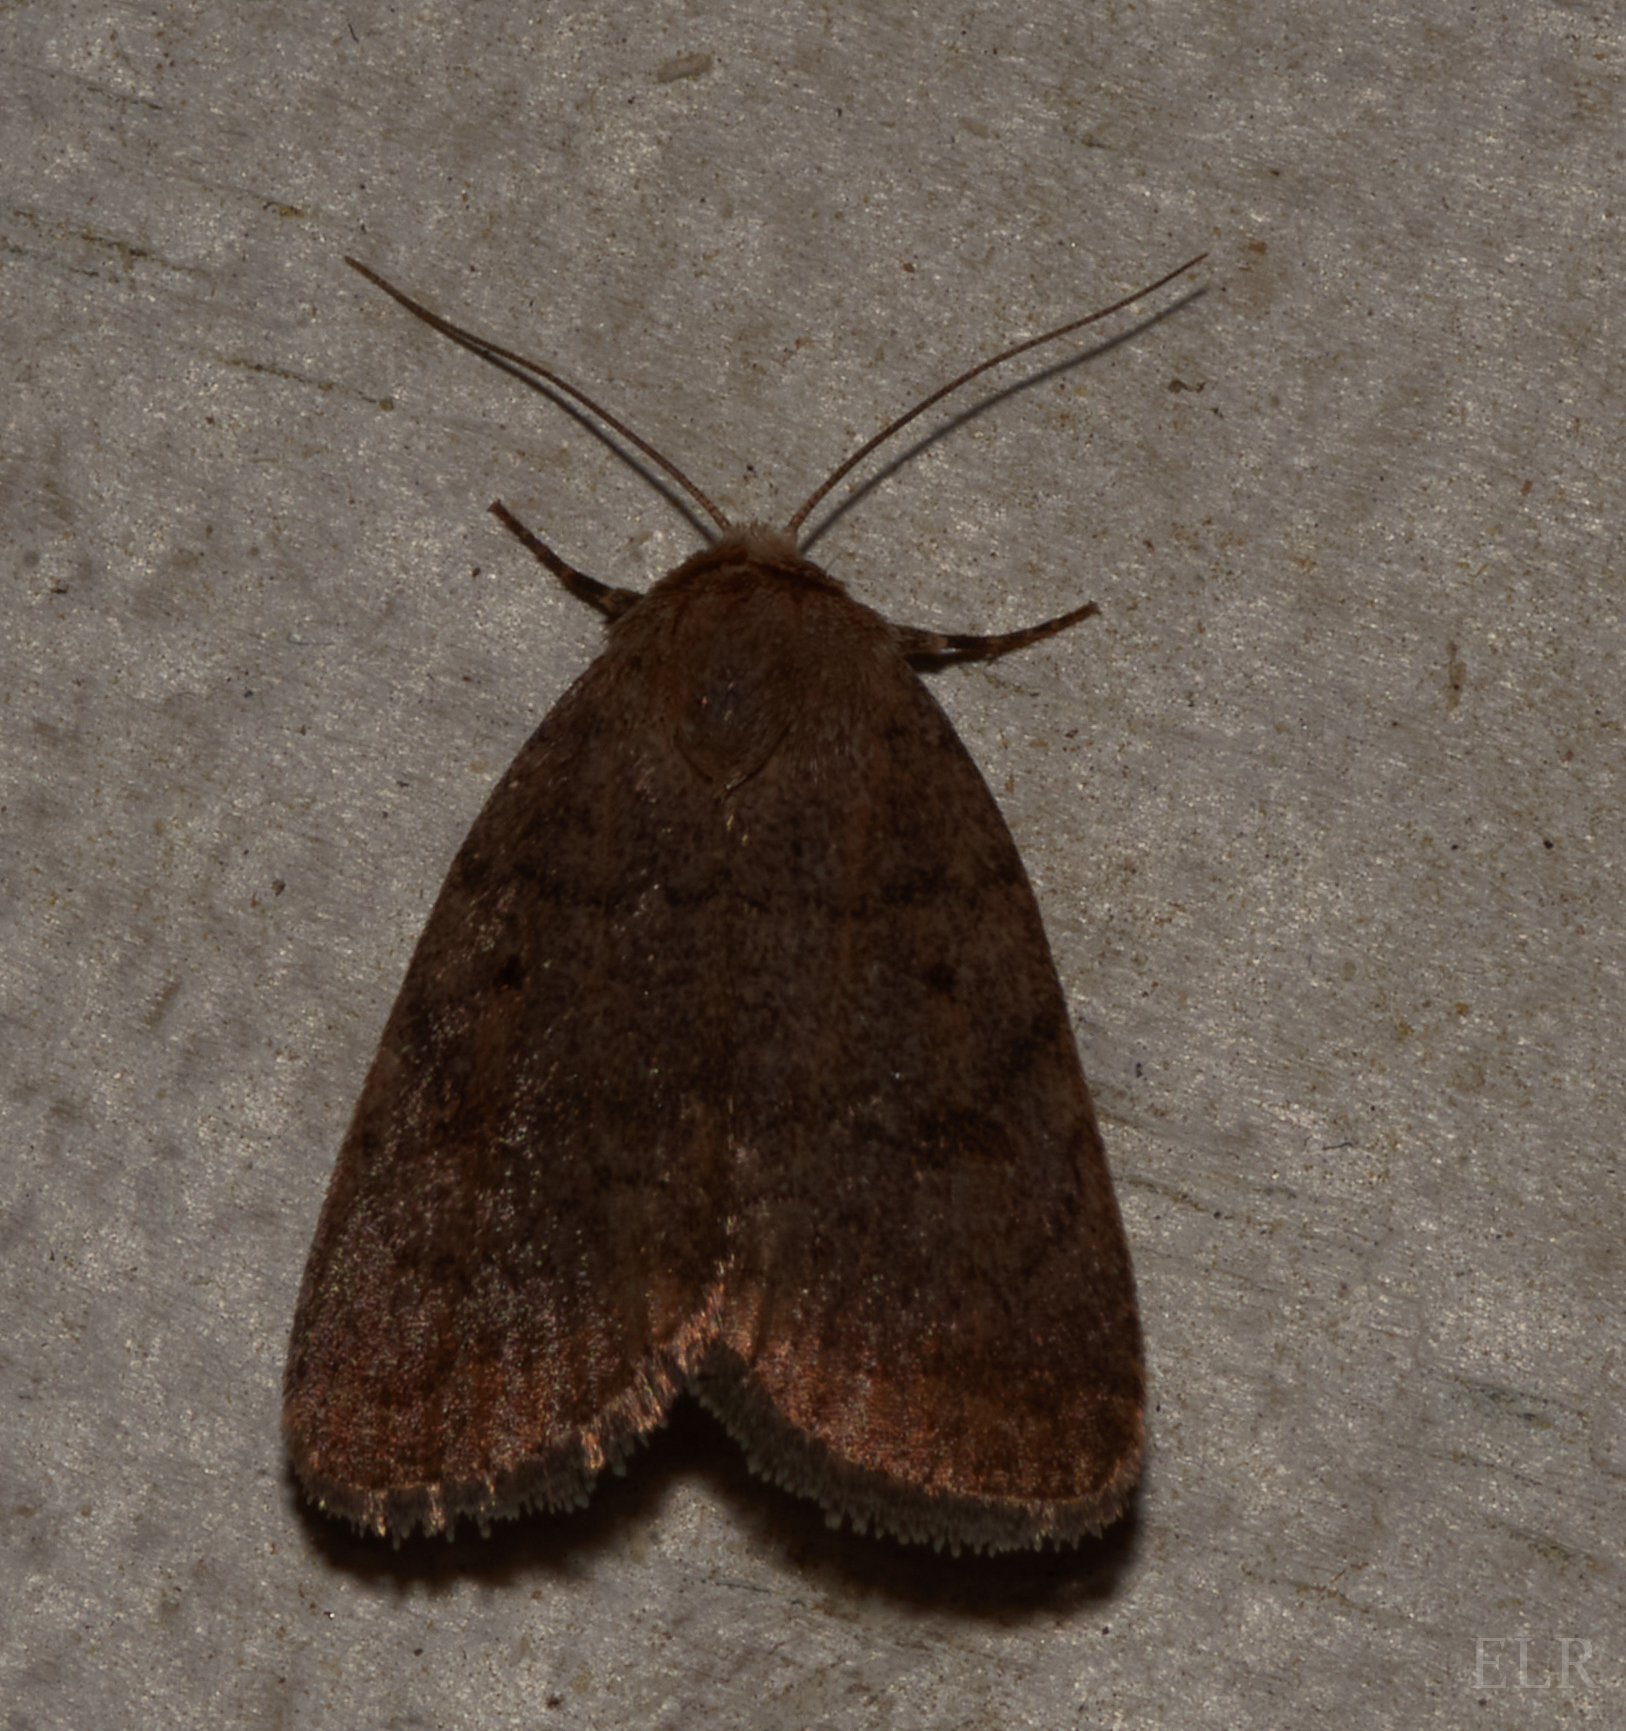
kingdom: Animalia
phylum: Arthropoda
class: Insecta
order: Lepidoptera
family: Noctuidae
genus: Athetis
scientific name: Athetis tarda
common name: Slowpoke moth
